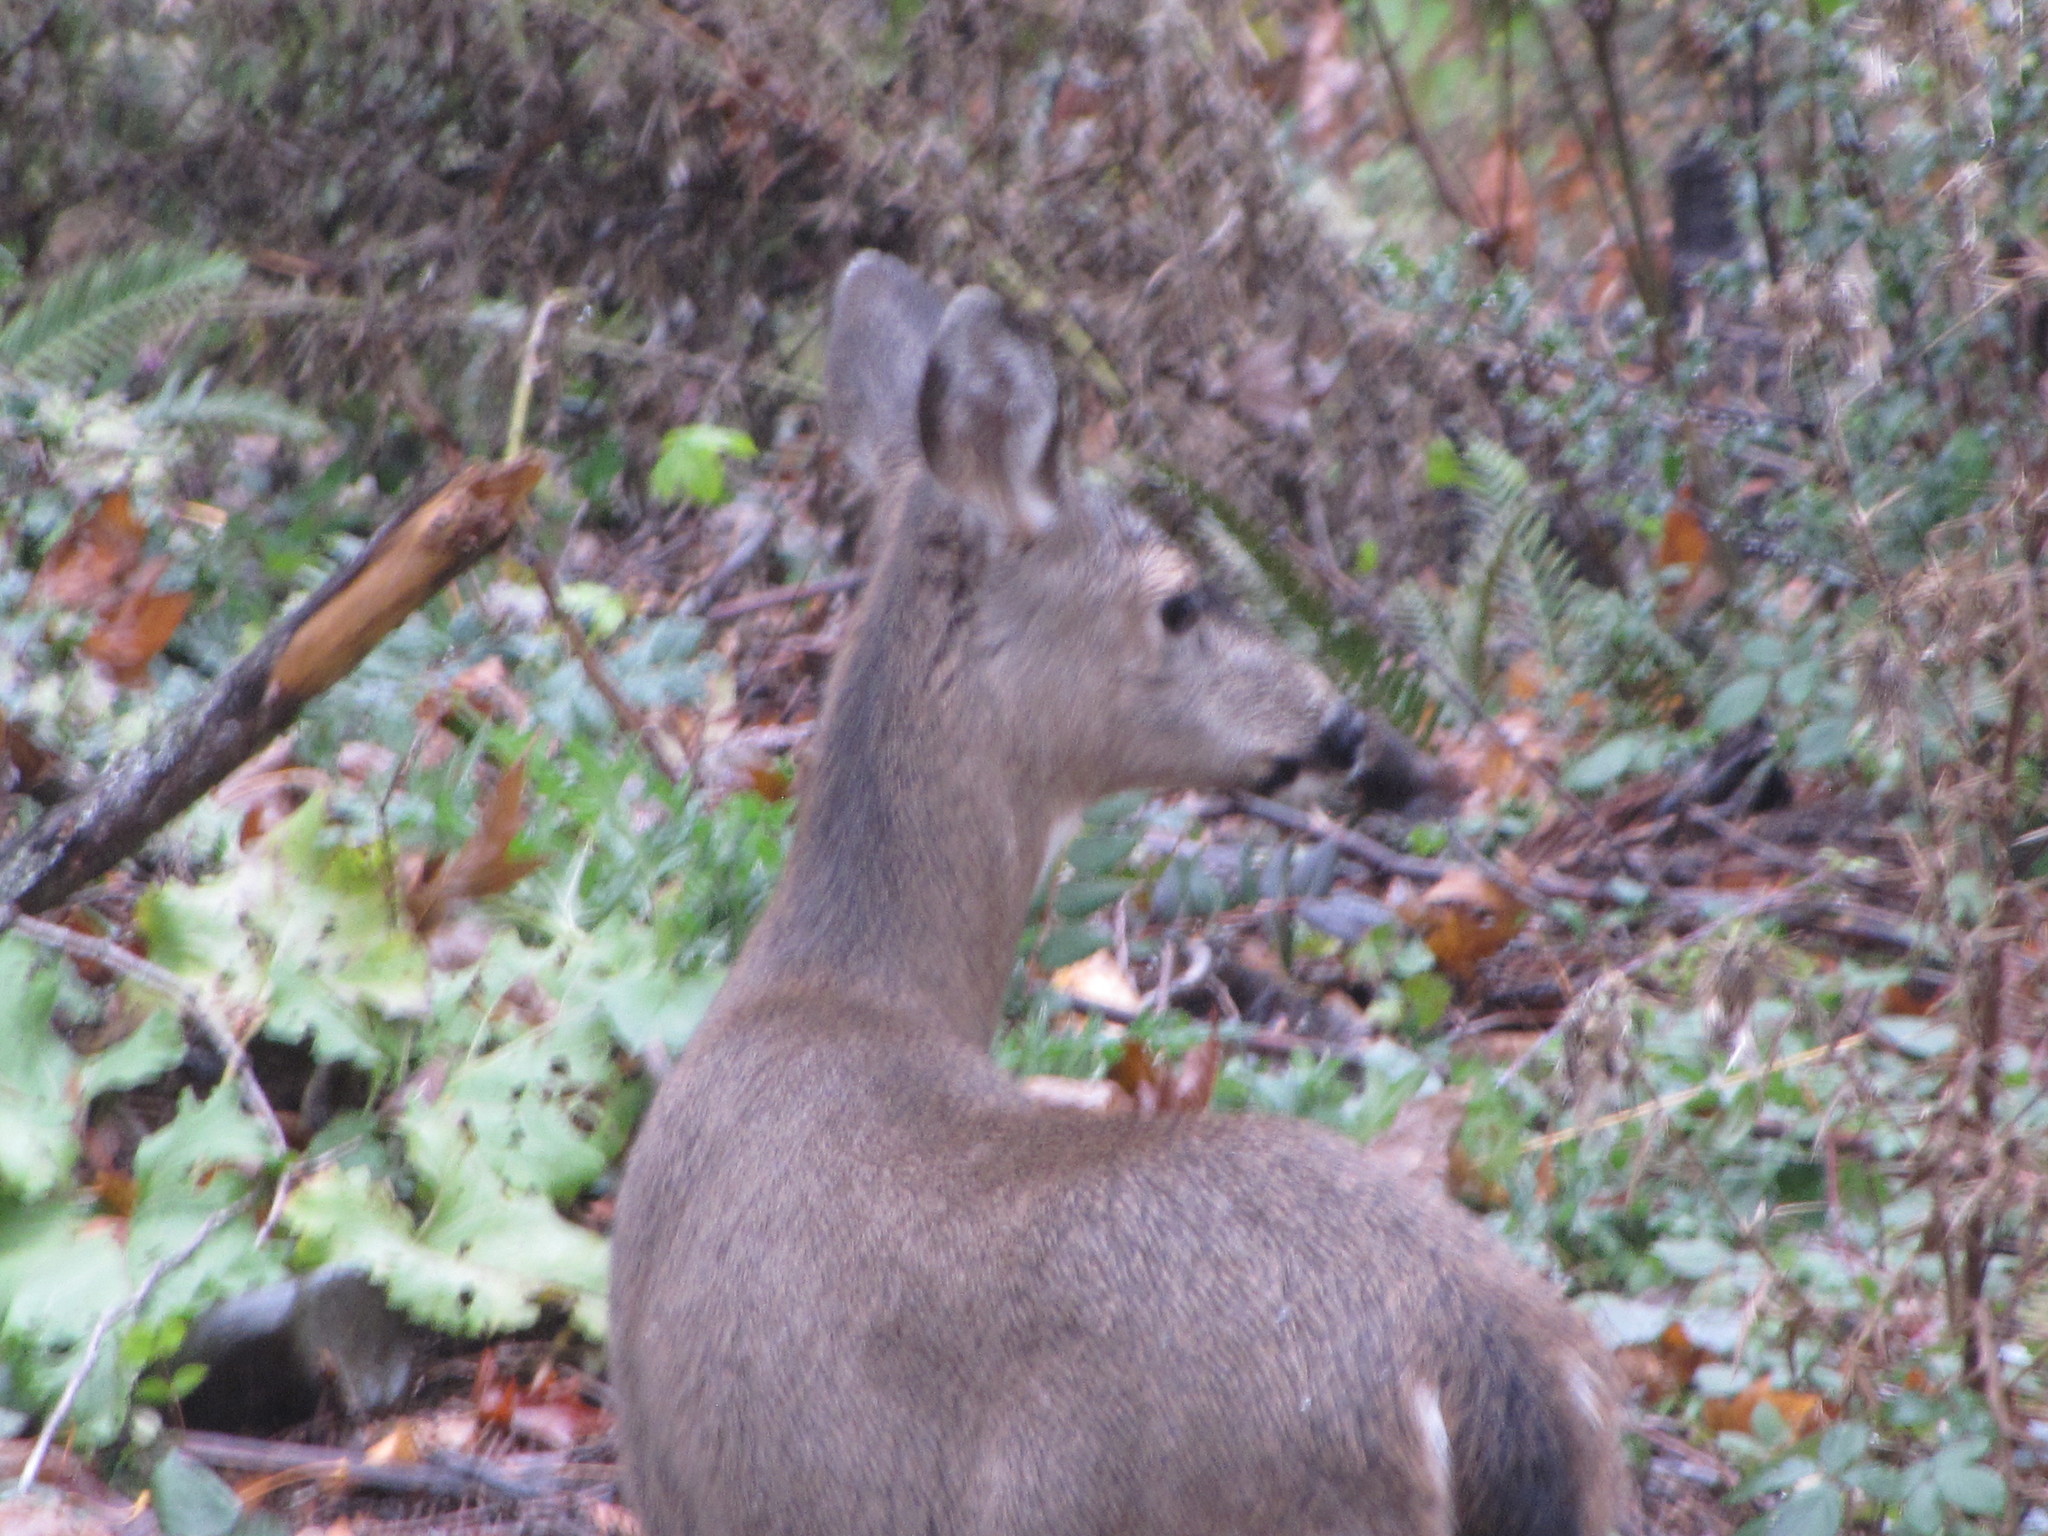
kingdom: Animalia
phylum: Chordata
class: Mammalia
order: Artiodactyla
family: Cervidae
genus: Odocoileus
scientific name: Odocoileus hemionus
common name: Mule deer
